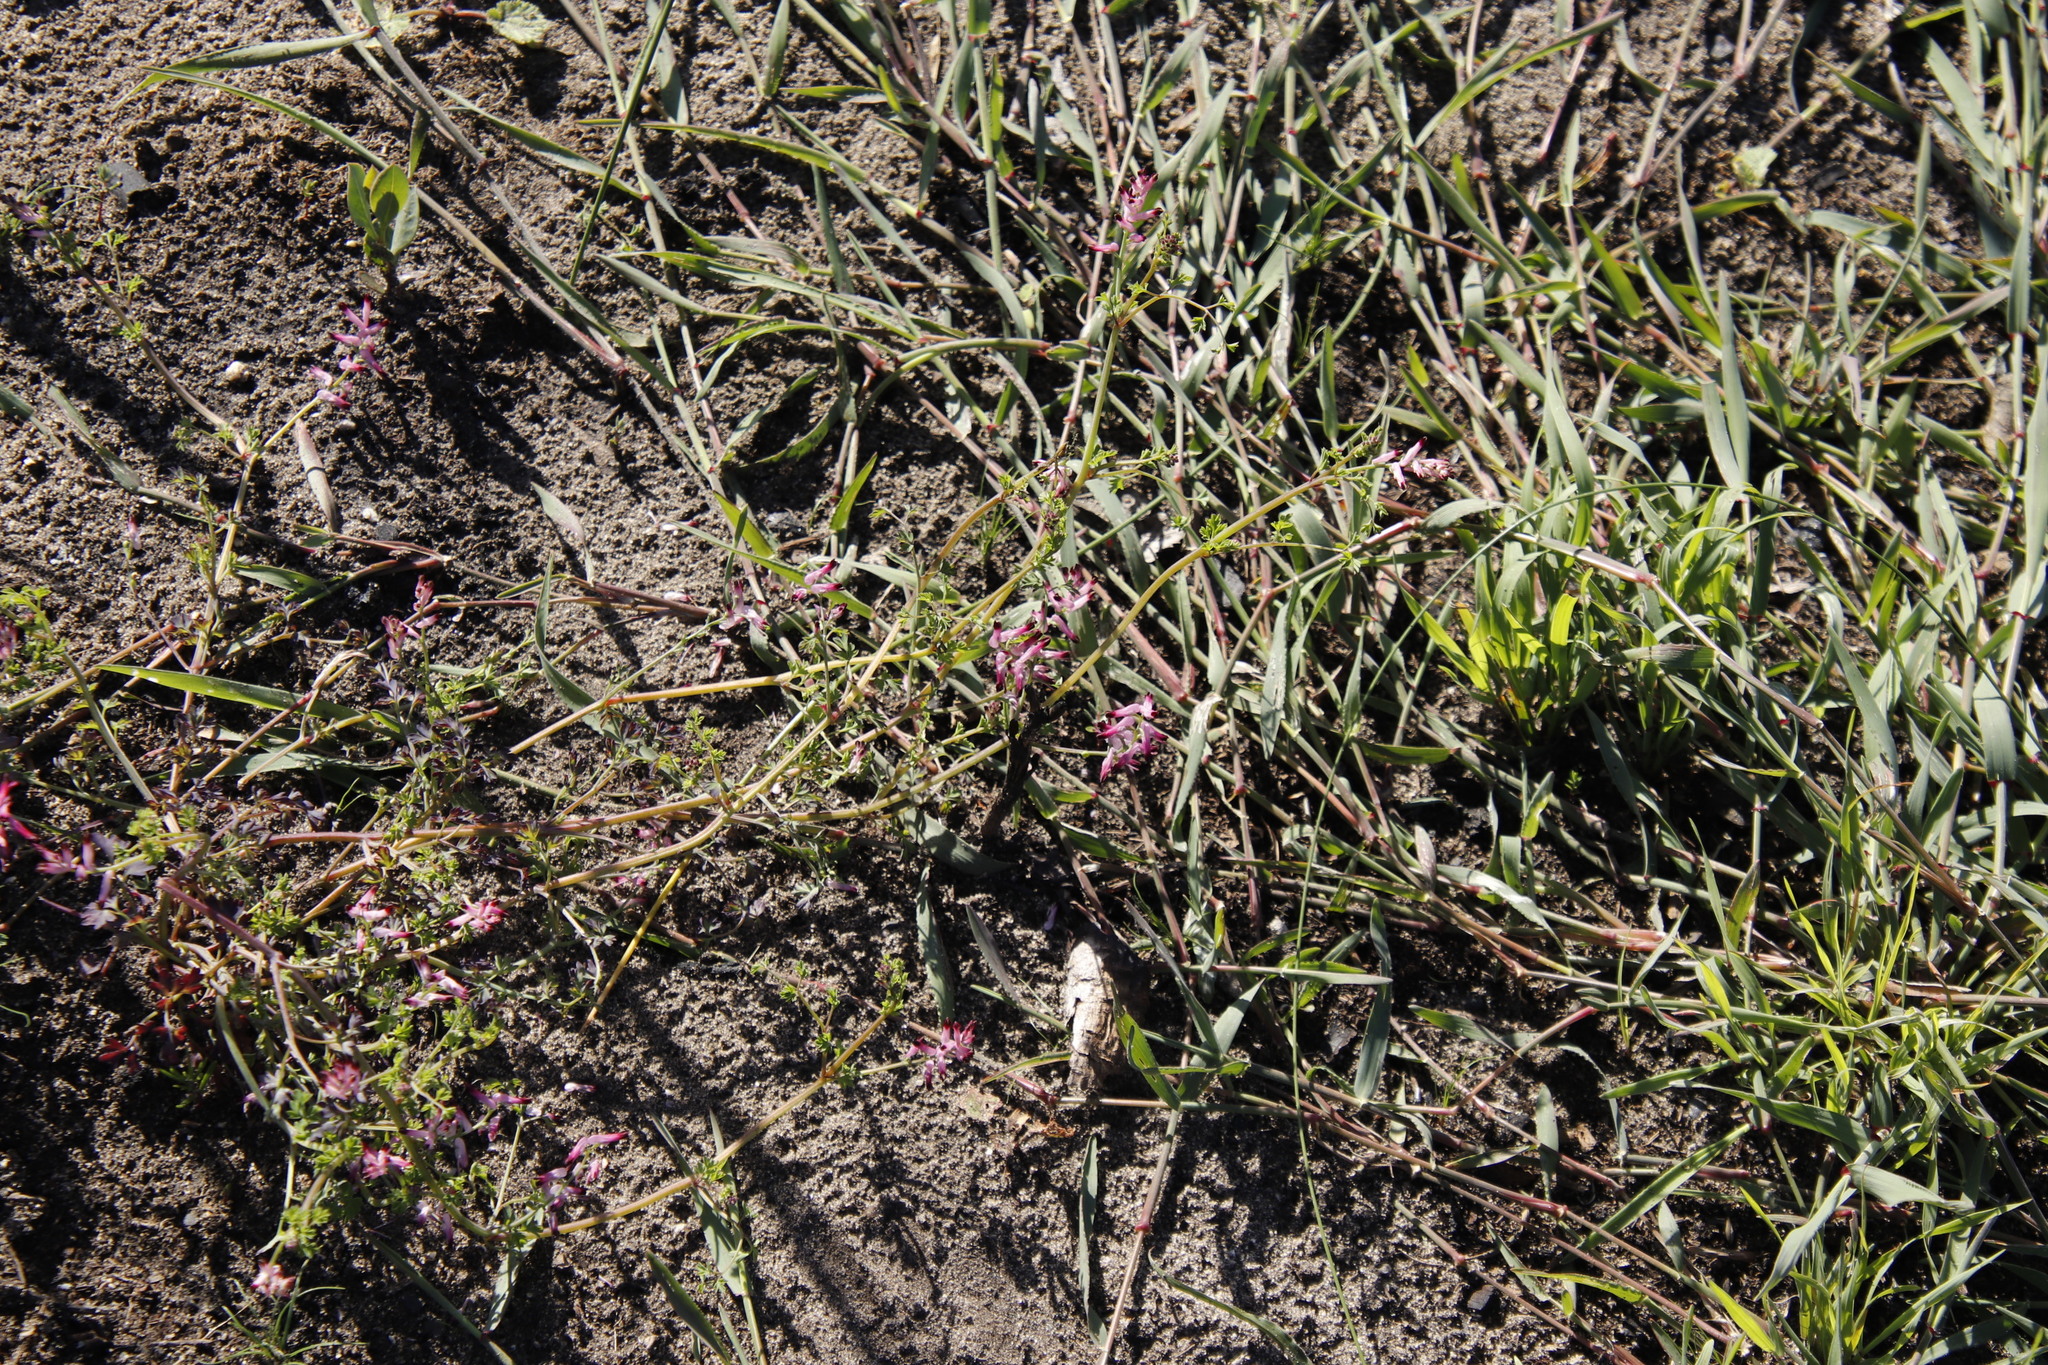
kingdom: Plantae
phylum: Tracheophyta
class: Magnoliopsida
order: Ranunculales
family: Papaveraceae
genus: Fumaria
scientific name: Fumaria muralis
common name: Common ramping-fumitory
